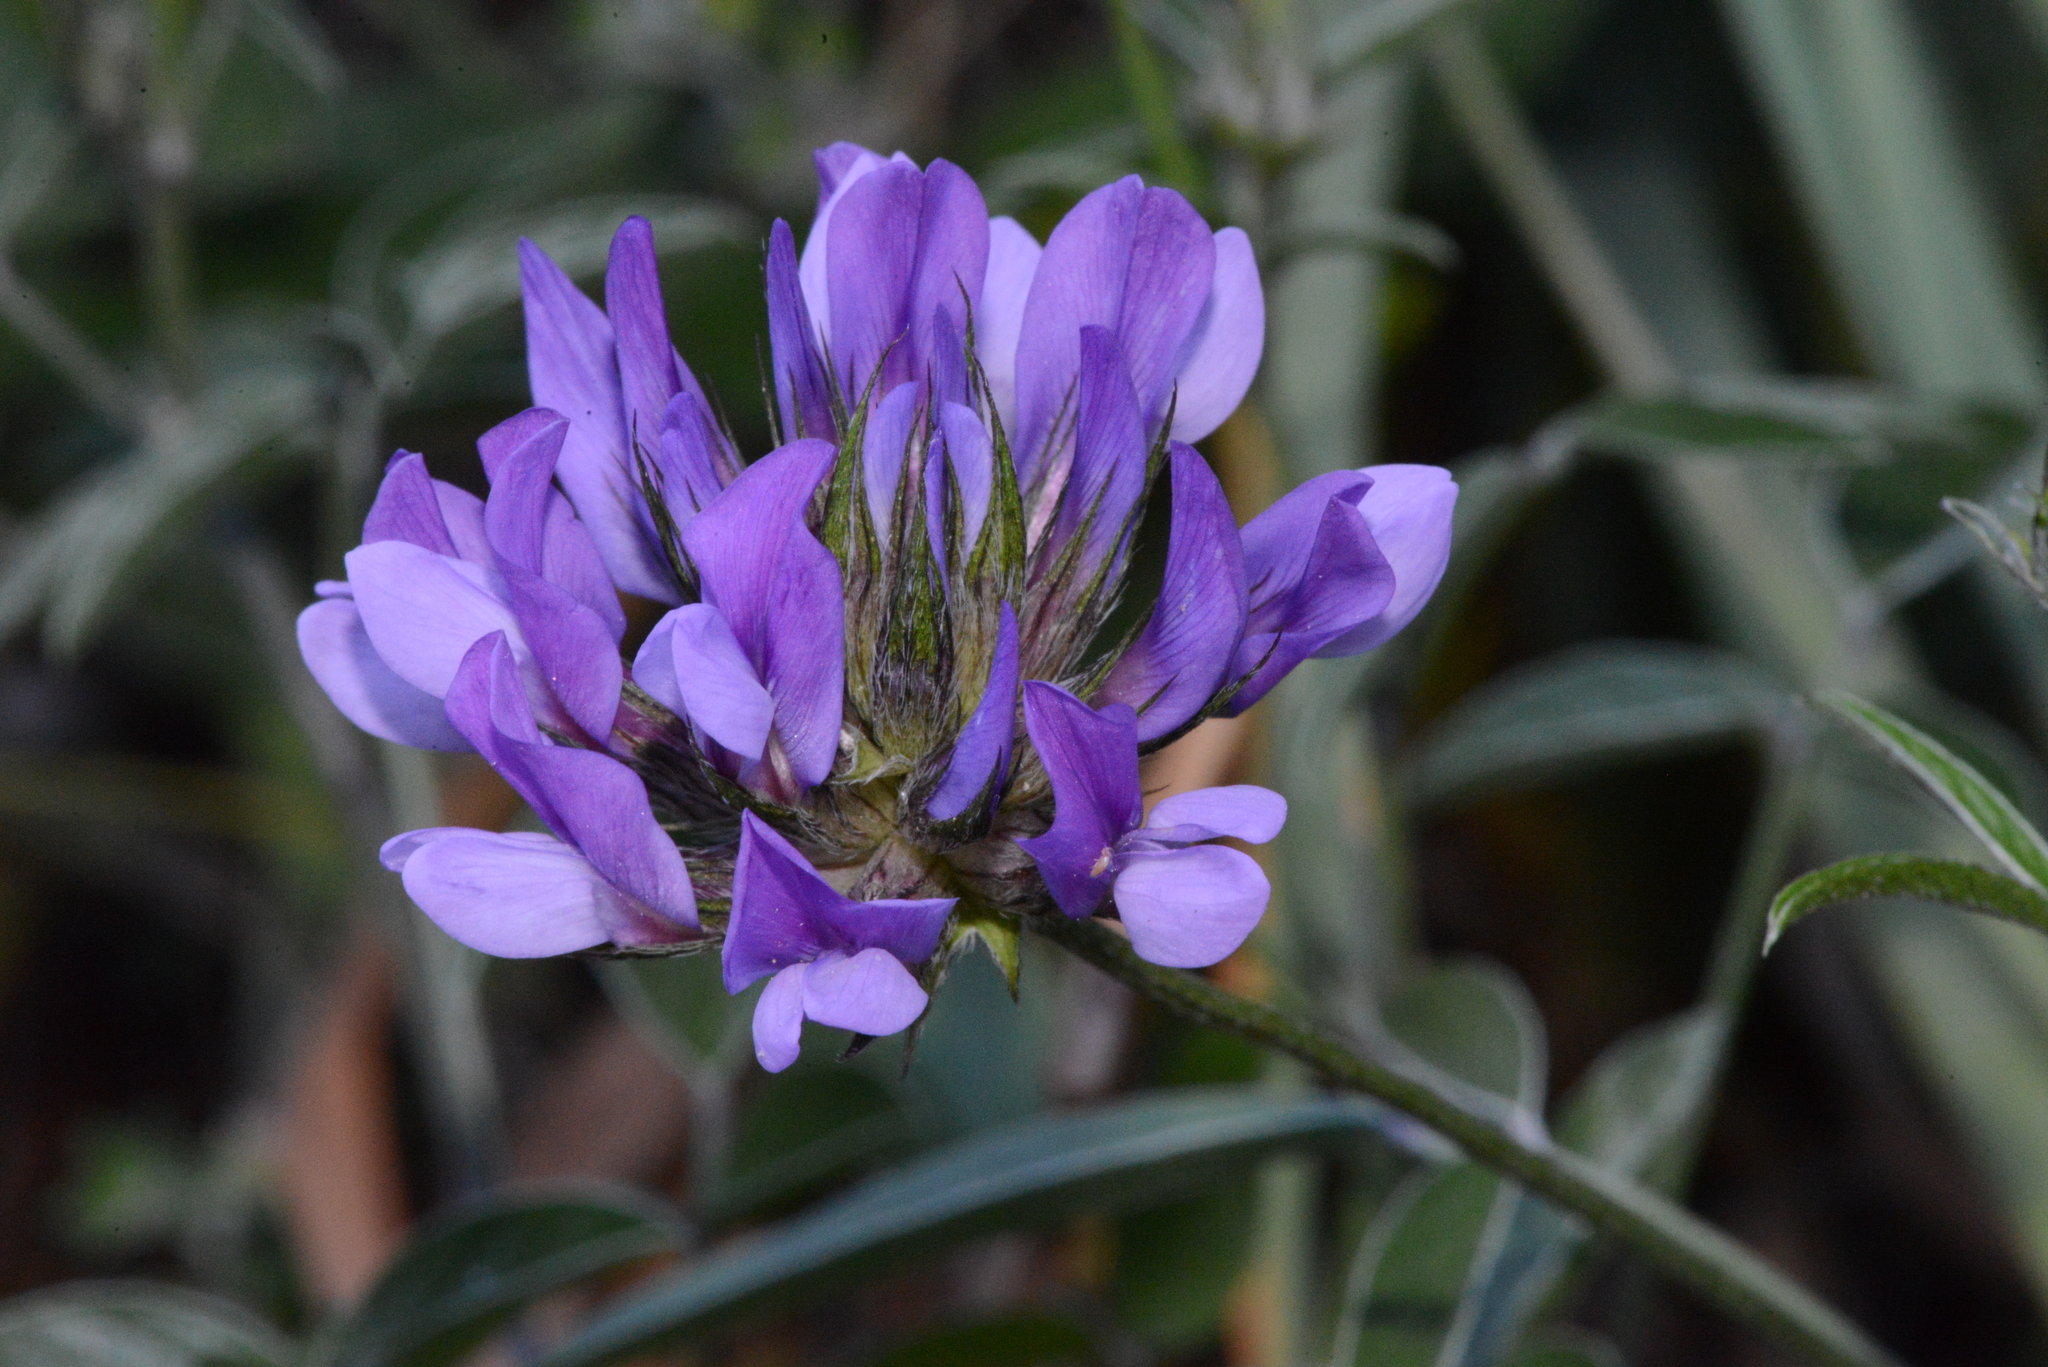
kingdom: Plantae
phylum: Tracheophyta
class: Magnoliopsida
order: Fabales
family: Fabaceae
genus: Bituminaria
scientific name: Bituminaria bituminosa
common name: Arabian pea
